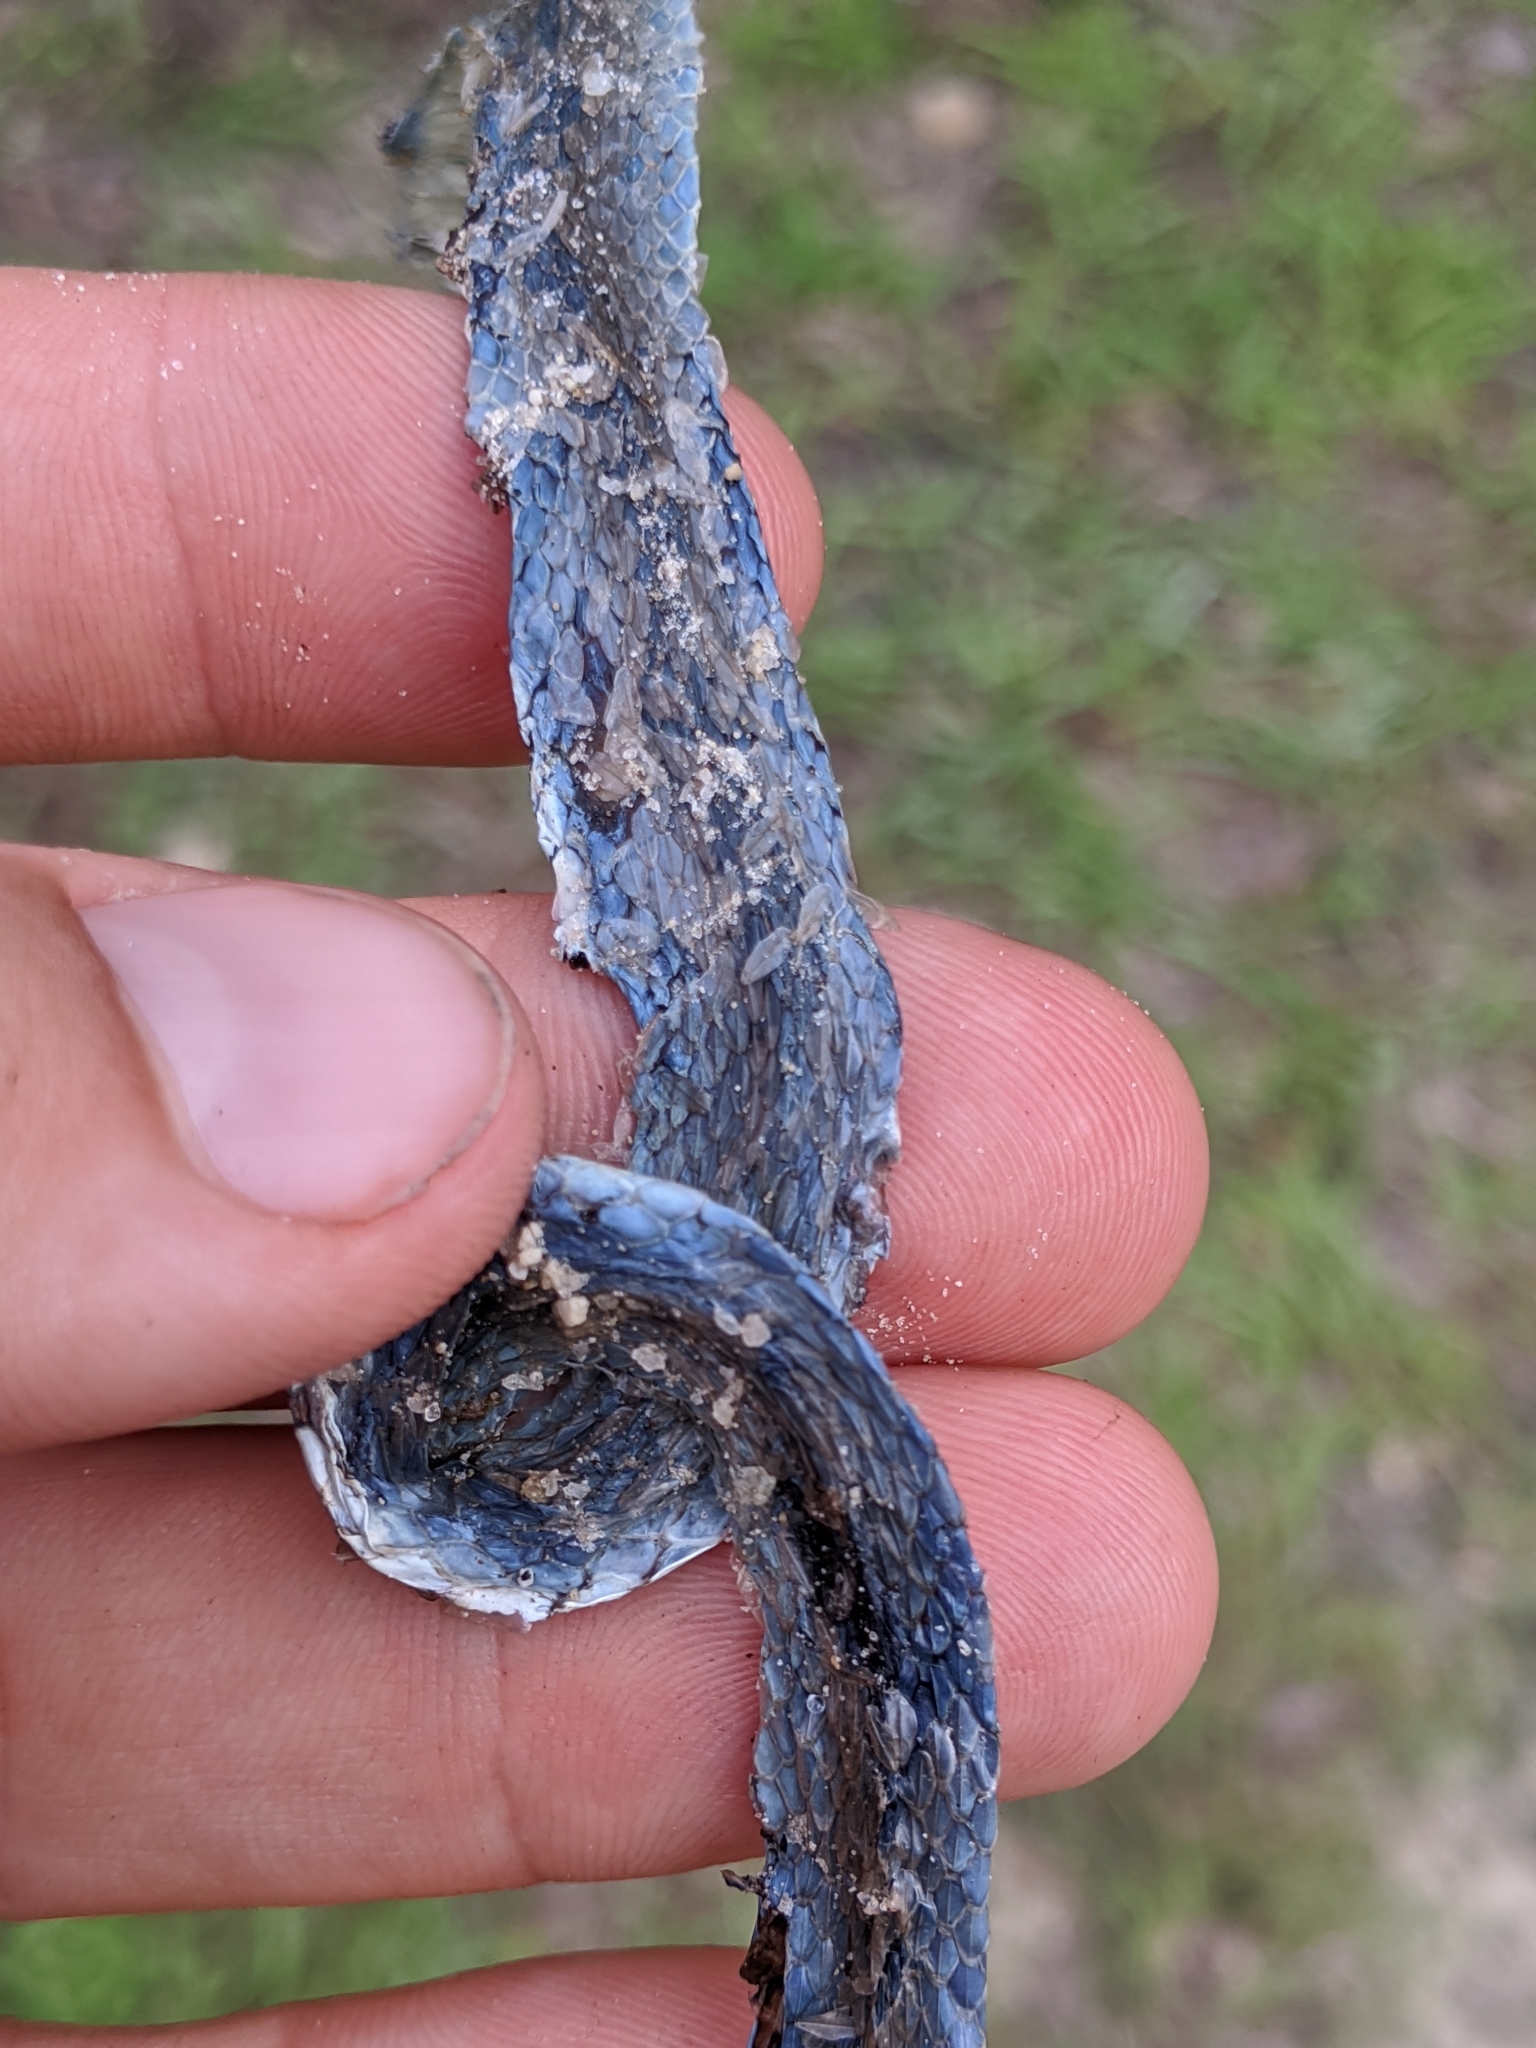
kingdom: Animalia
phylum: Chordata
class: Squamata
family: Colubridae
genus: Opheodrys
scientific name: Opheodrys aestivus
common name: Rough greensnake
